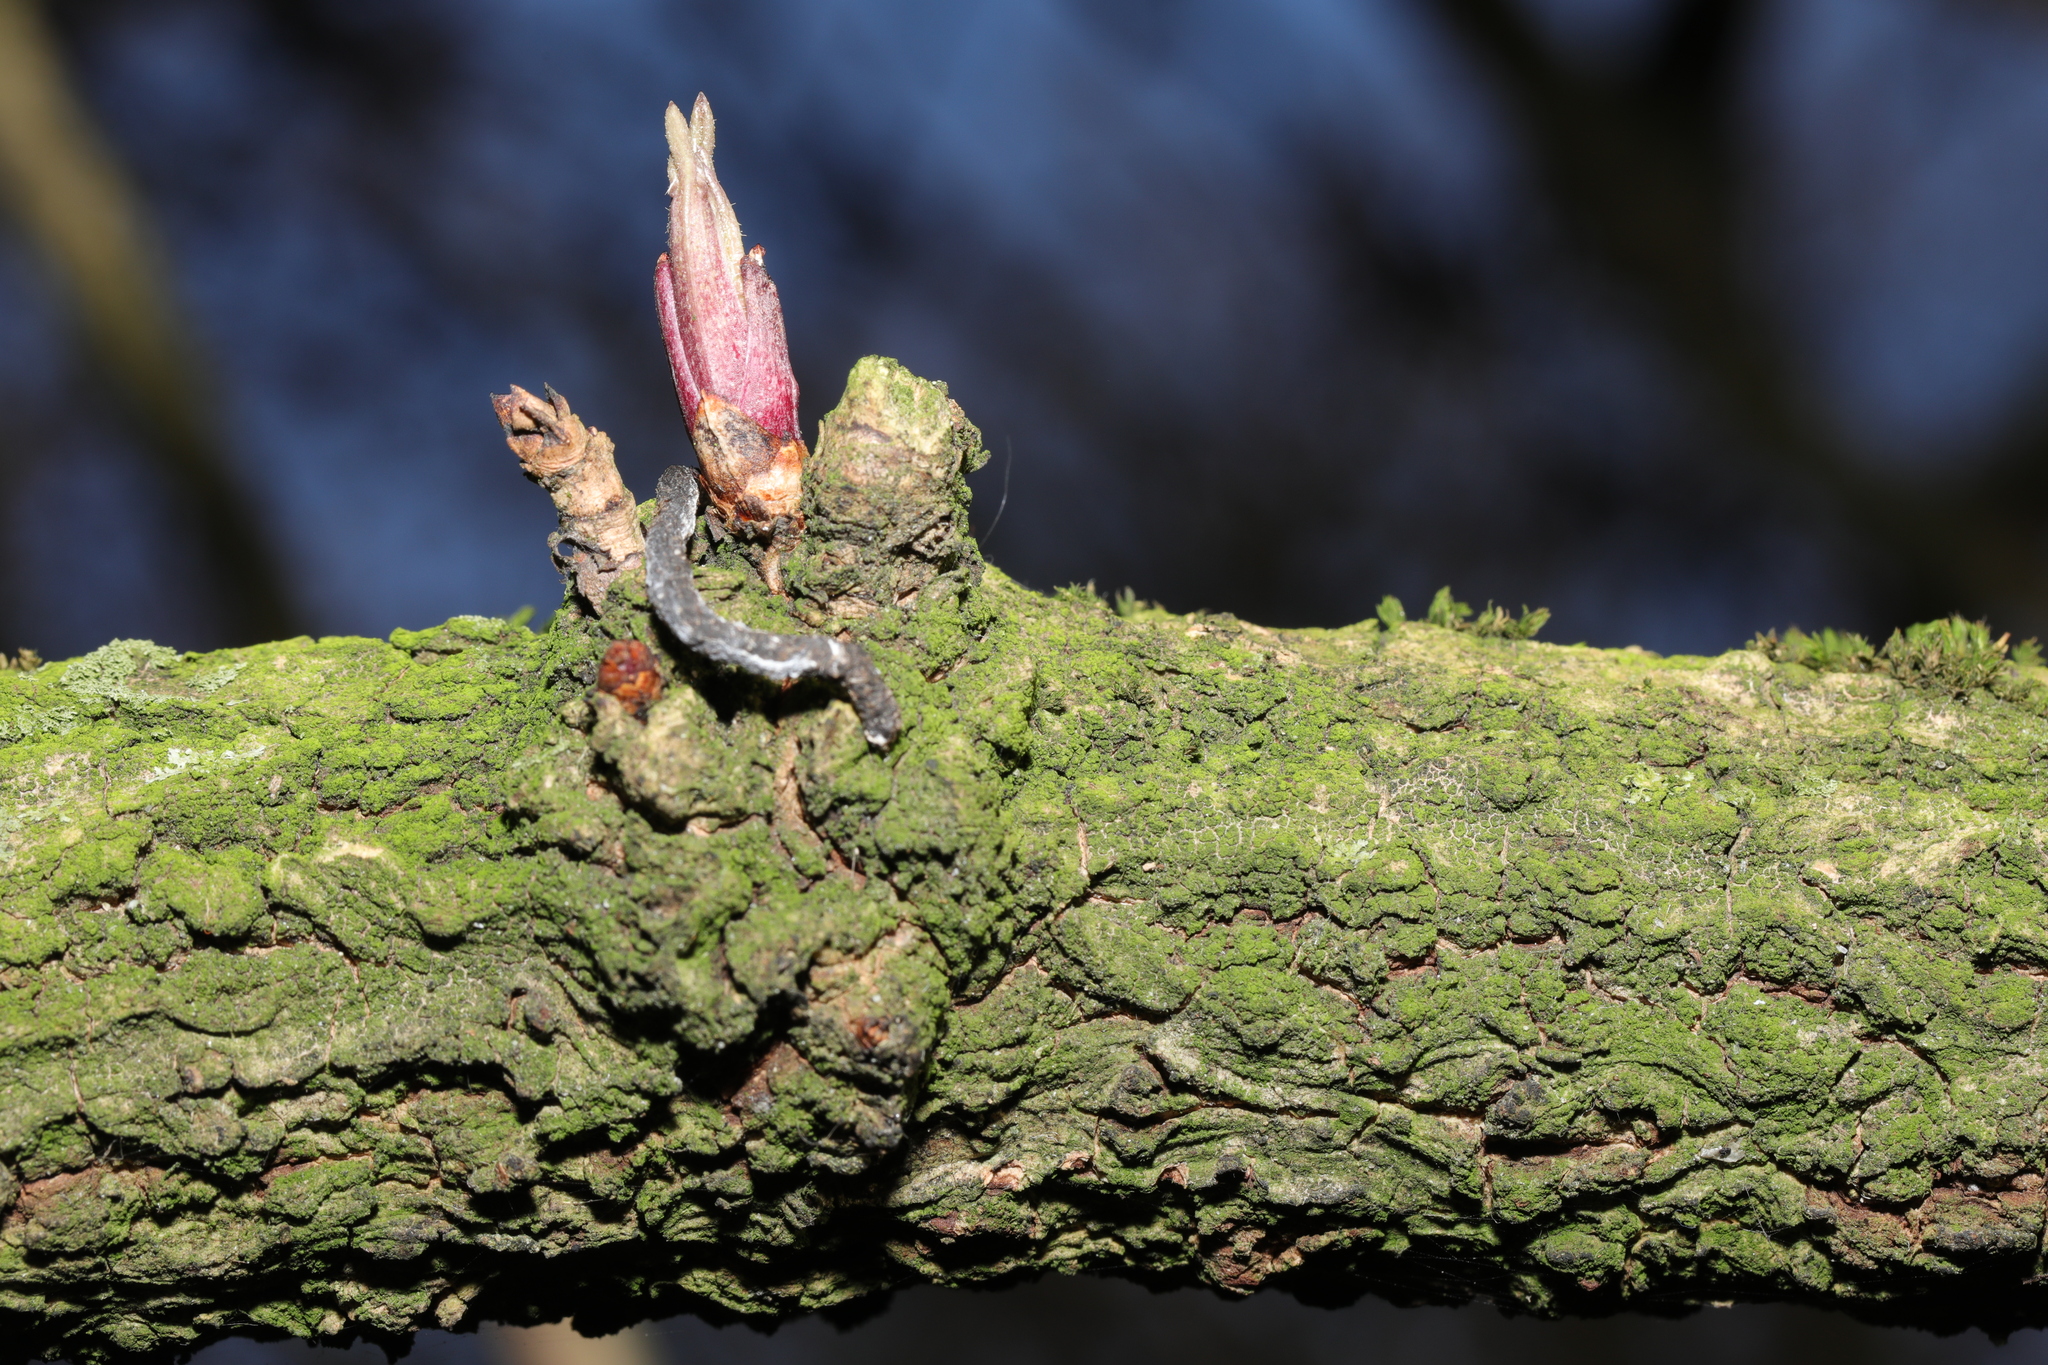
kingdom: Plantae
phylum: Tracheophyta
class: Magnoliopsida
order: Dipsacales
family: Viburnaceae
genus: Sambucus
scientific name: Sambucus nigra
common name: Elder
